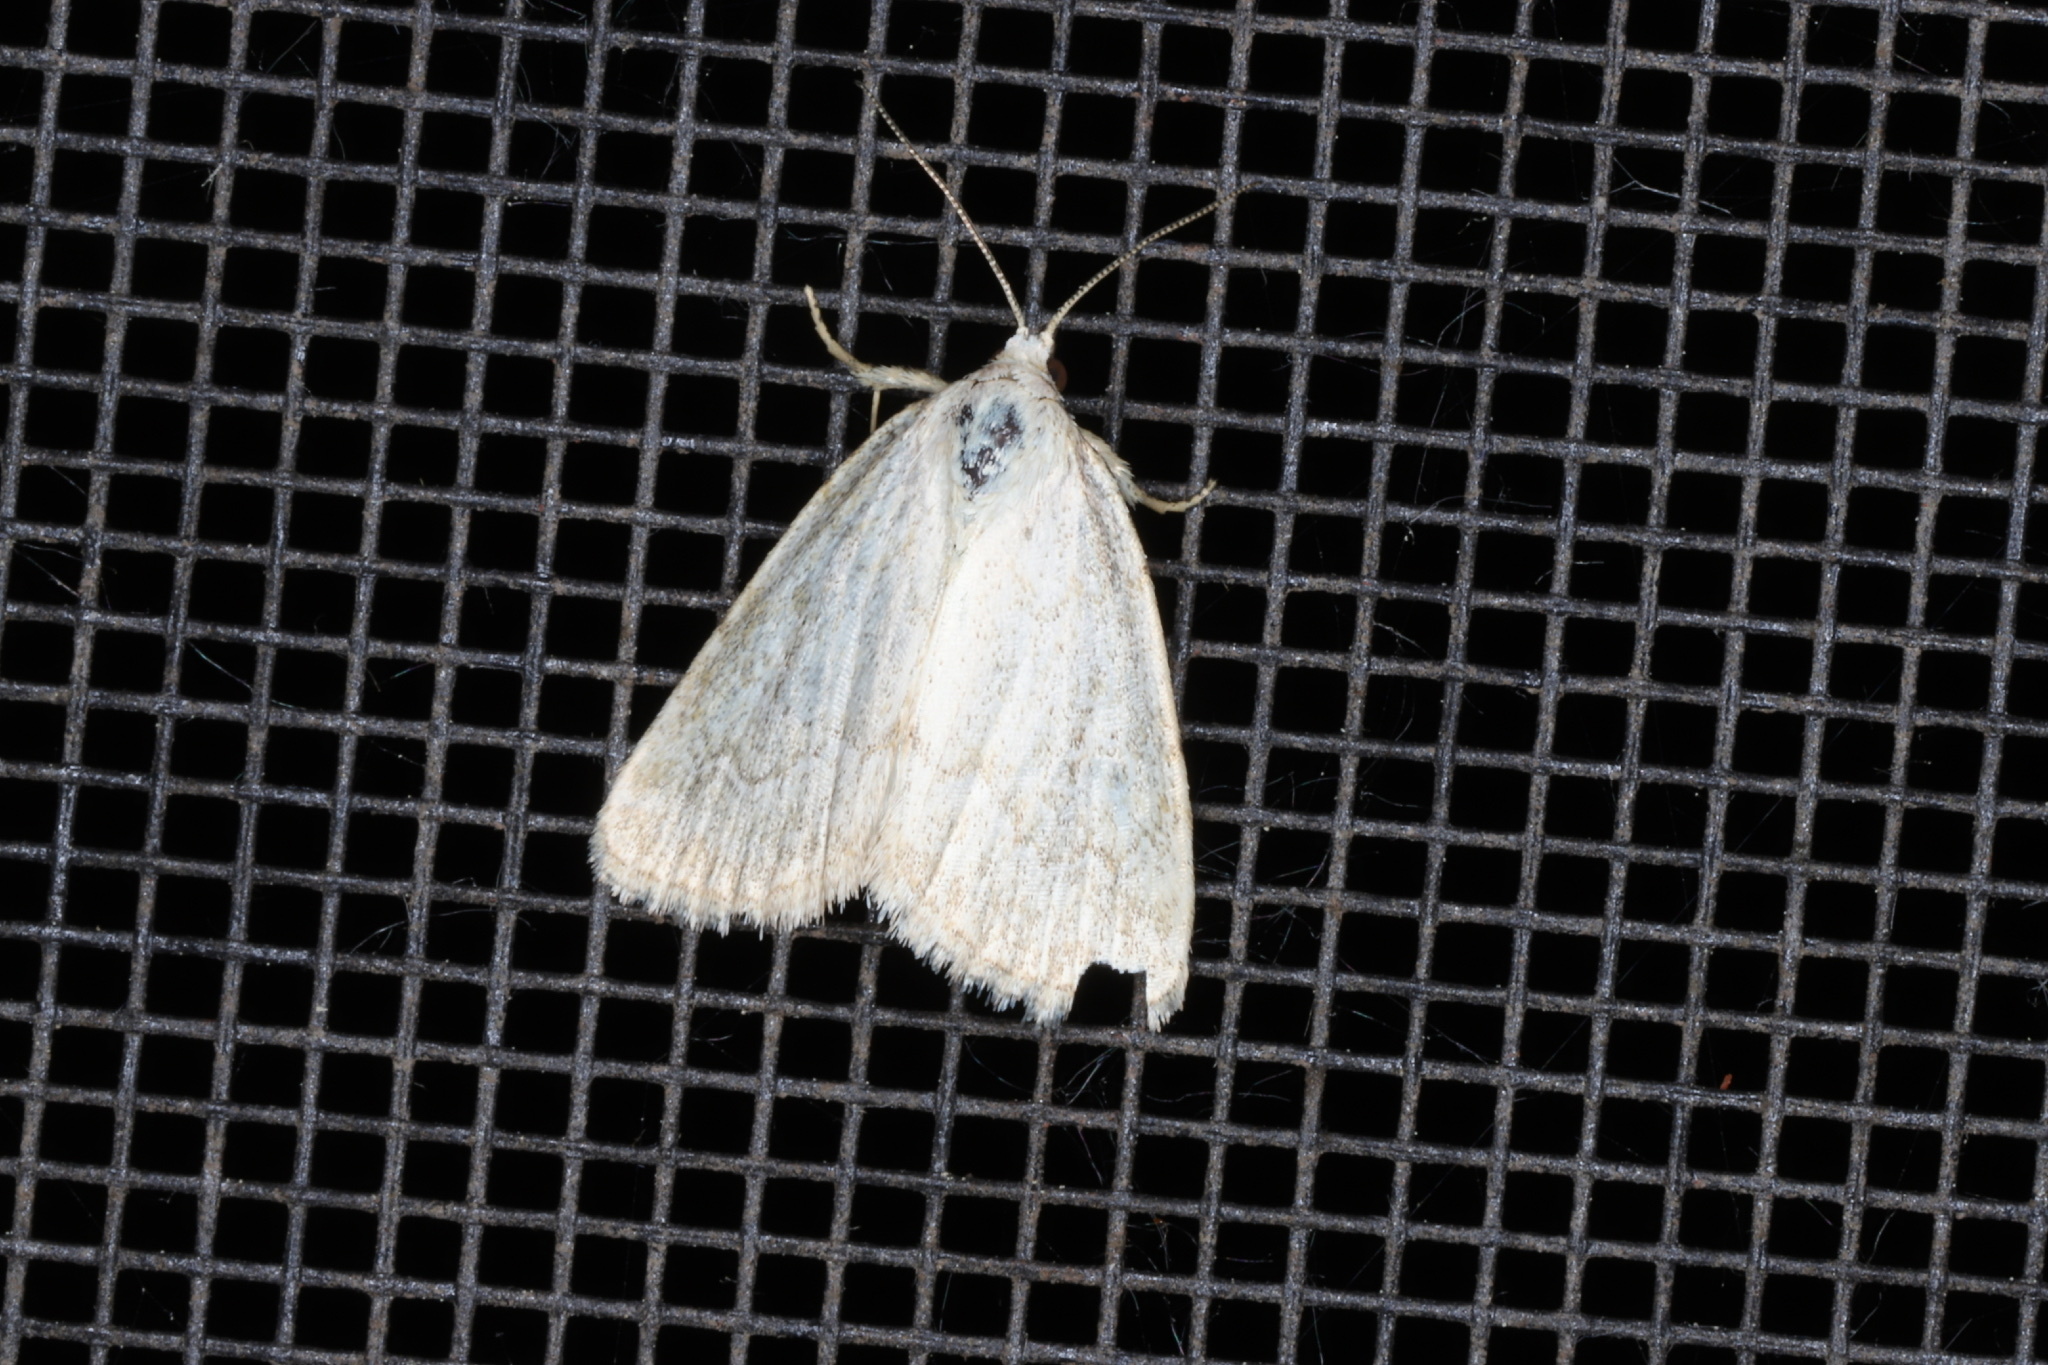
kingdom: Animalia
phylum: Arthropoda
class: Insecta
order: Lepidoptera
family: Noctuidae
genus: Protodeltote
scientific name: Protodeltote albidula
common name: Pale glyph
